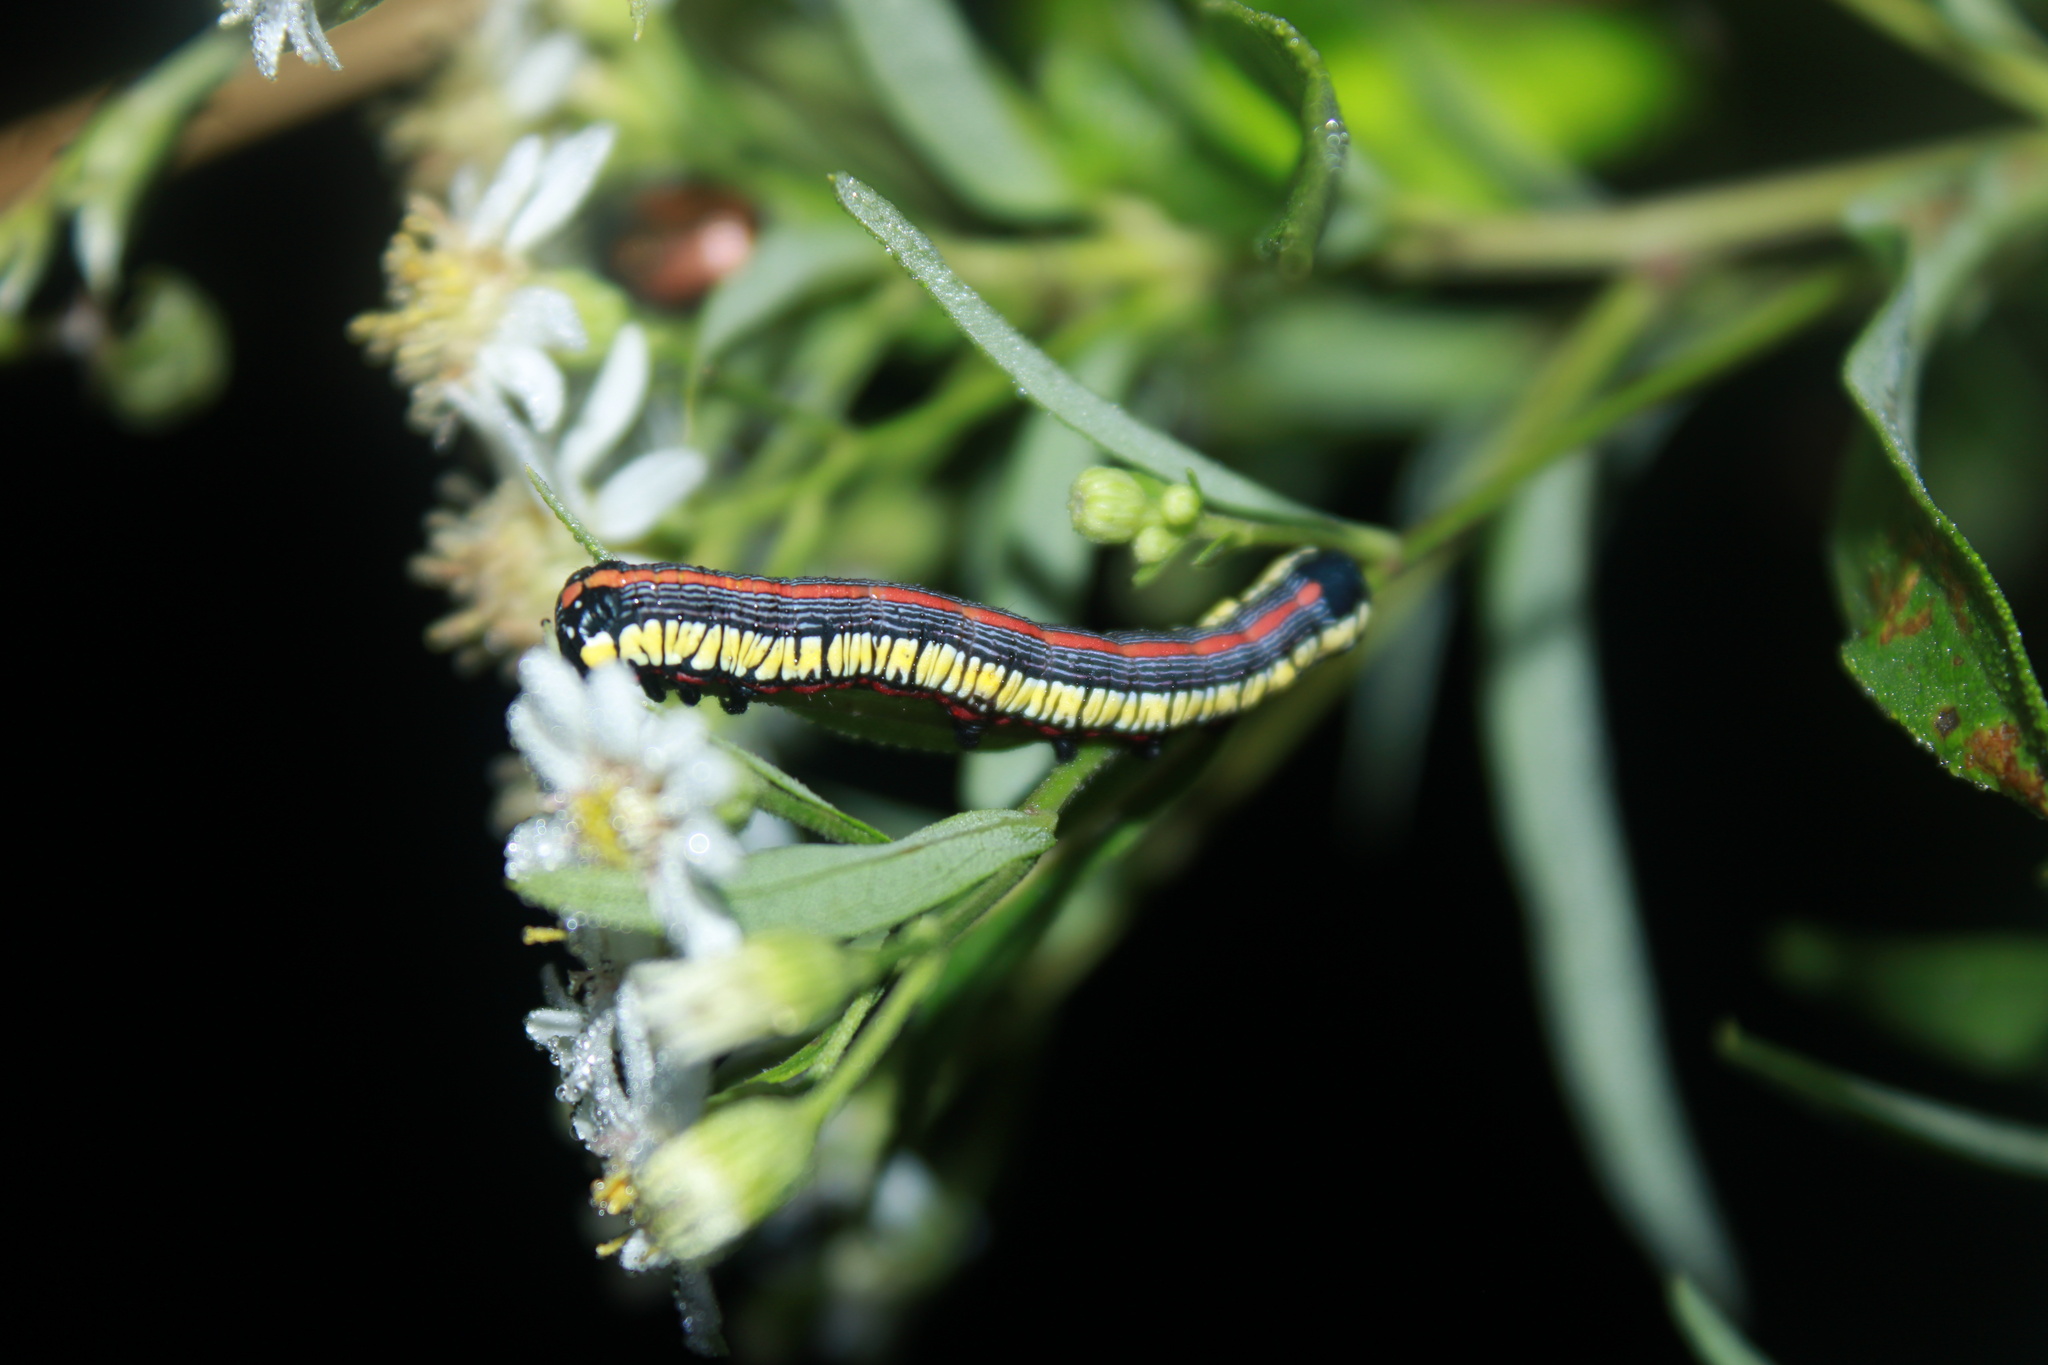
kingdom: Animalia
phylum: Arthropoda
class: Insecta
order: Lepidoptera
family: Noctuidae
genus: Cucullia
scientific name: Cucullia convexipennis
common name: Brown-hooded owlet
